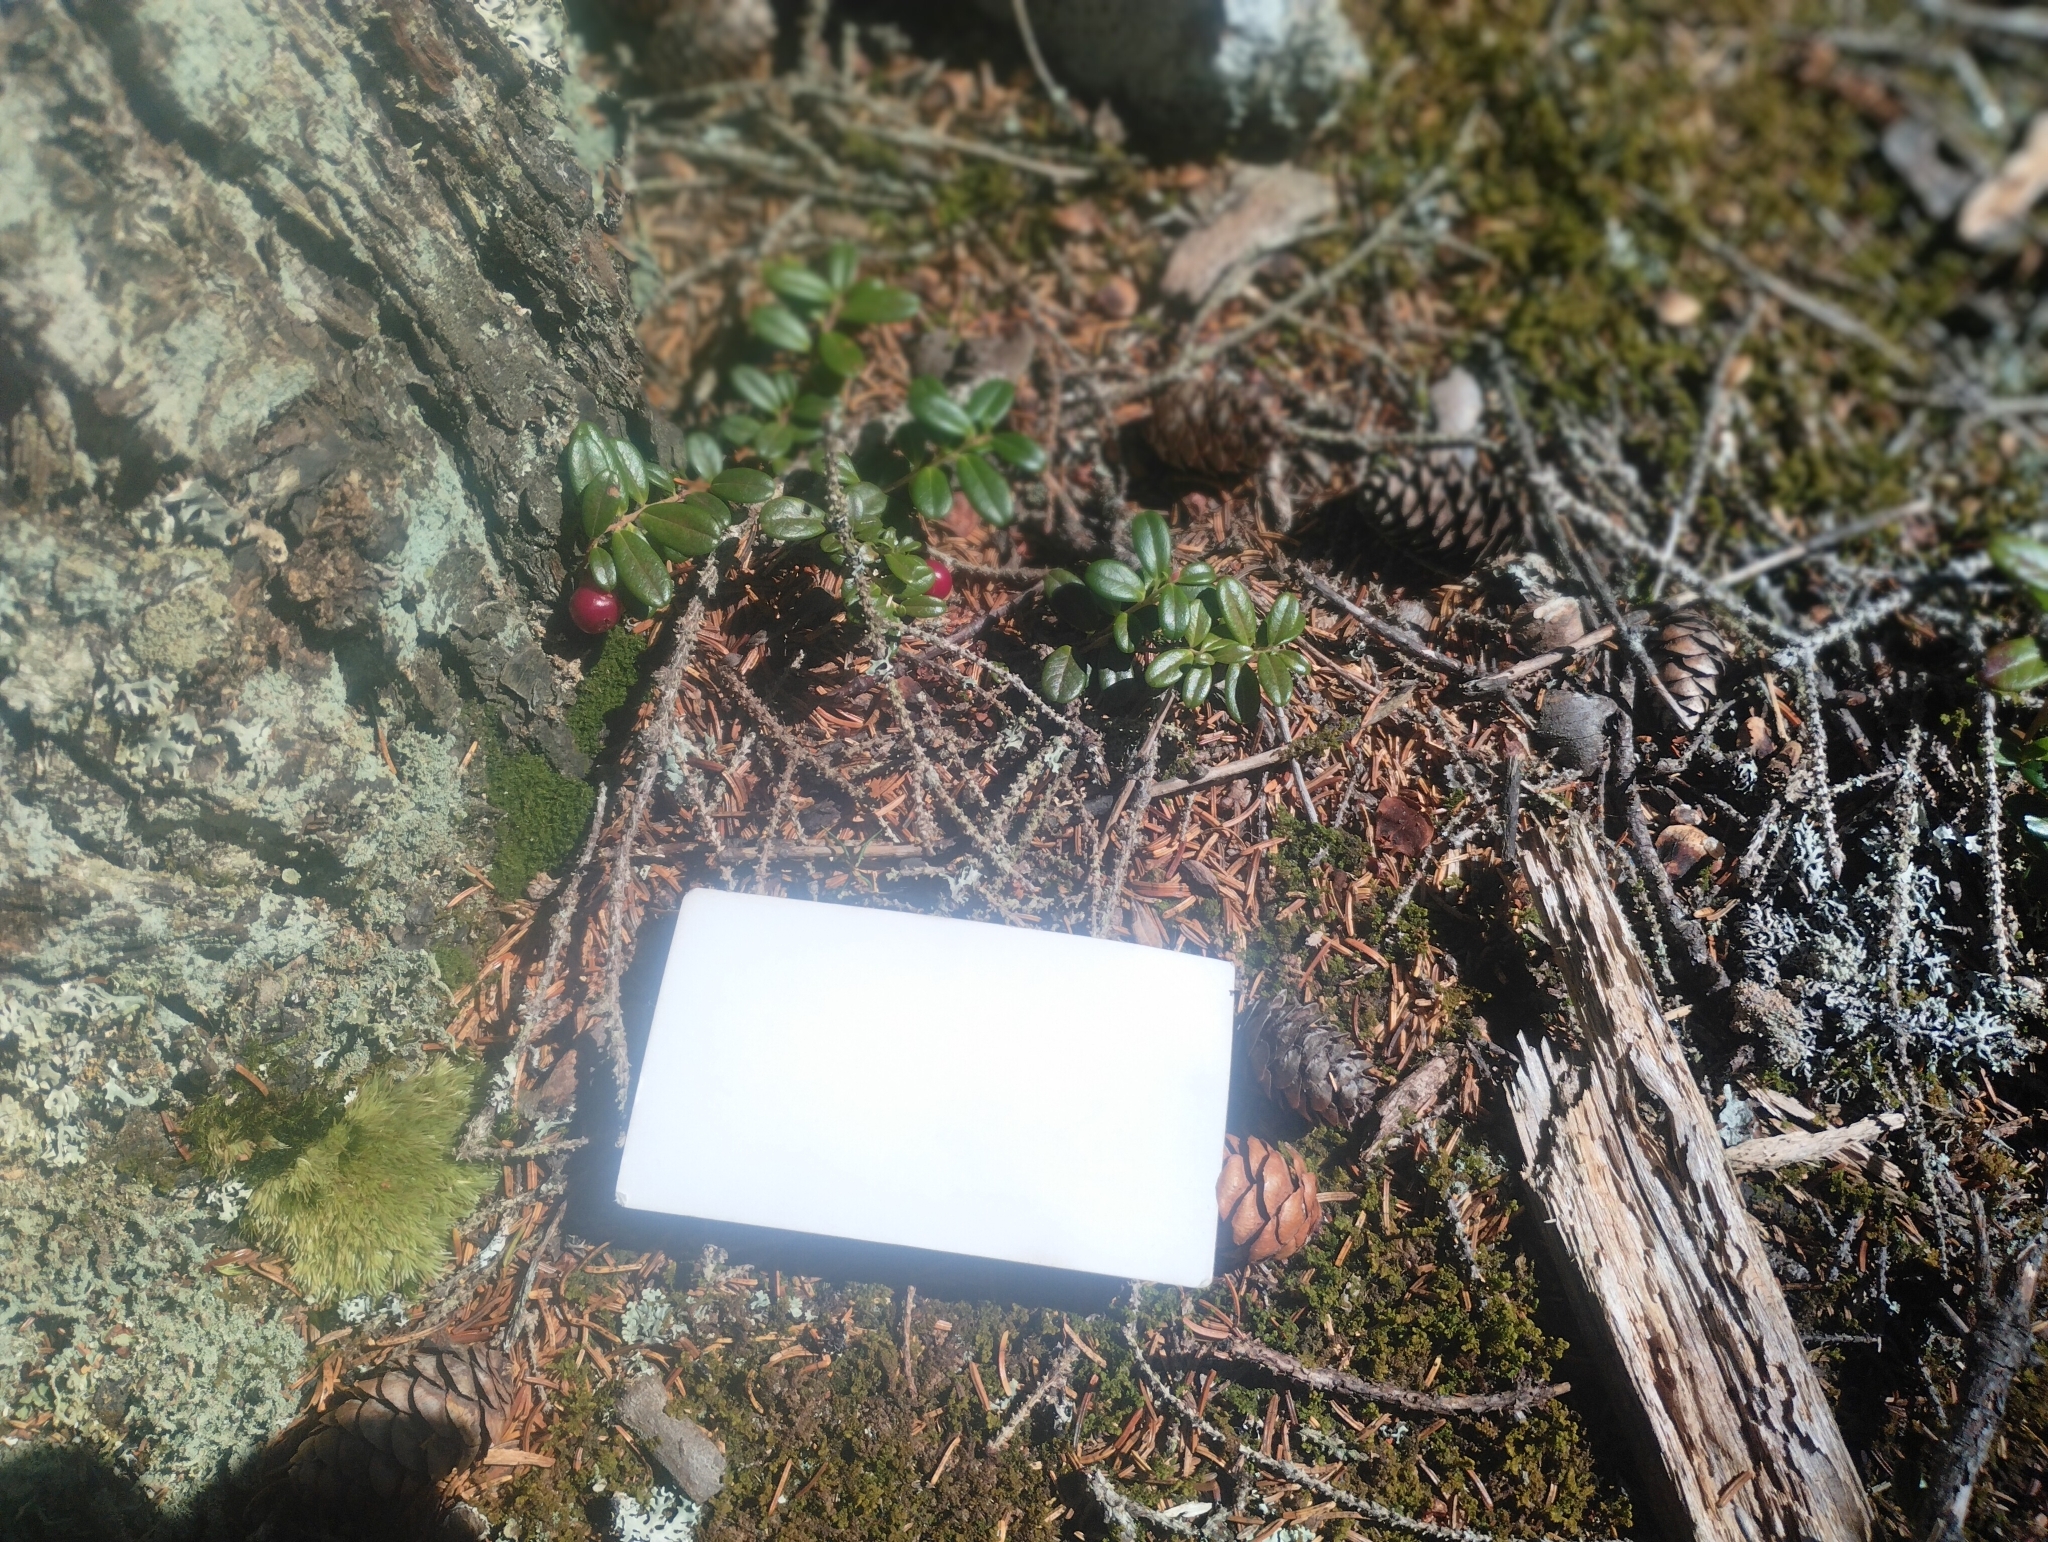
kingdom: Plantae
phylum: Tracheophyta
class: Magnoliopsida
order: Ericales
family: Ericaceae
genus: Vaccinium
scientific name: Vaccinium vitis-idaea
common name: Cowberry
